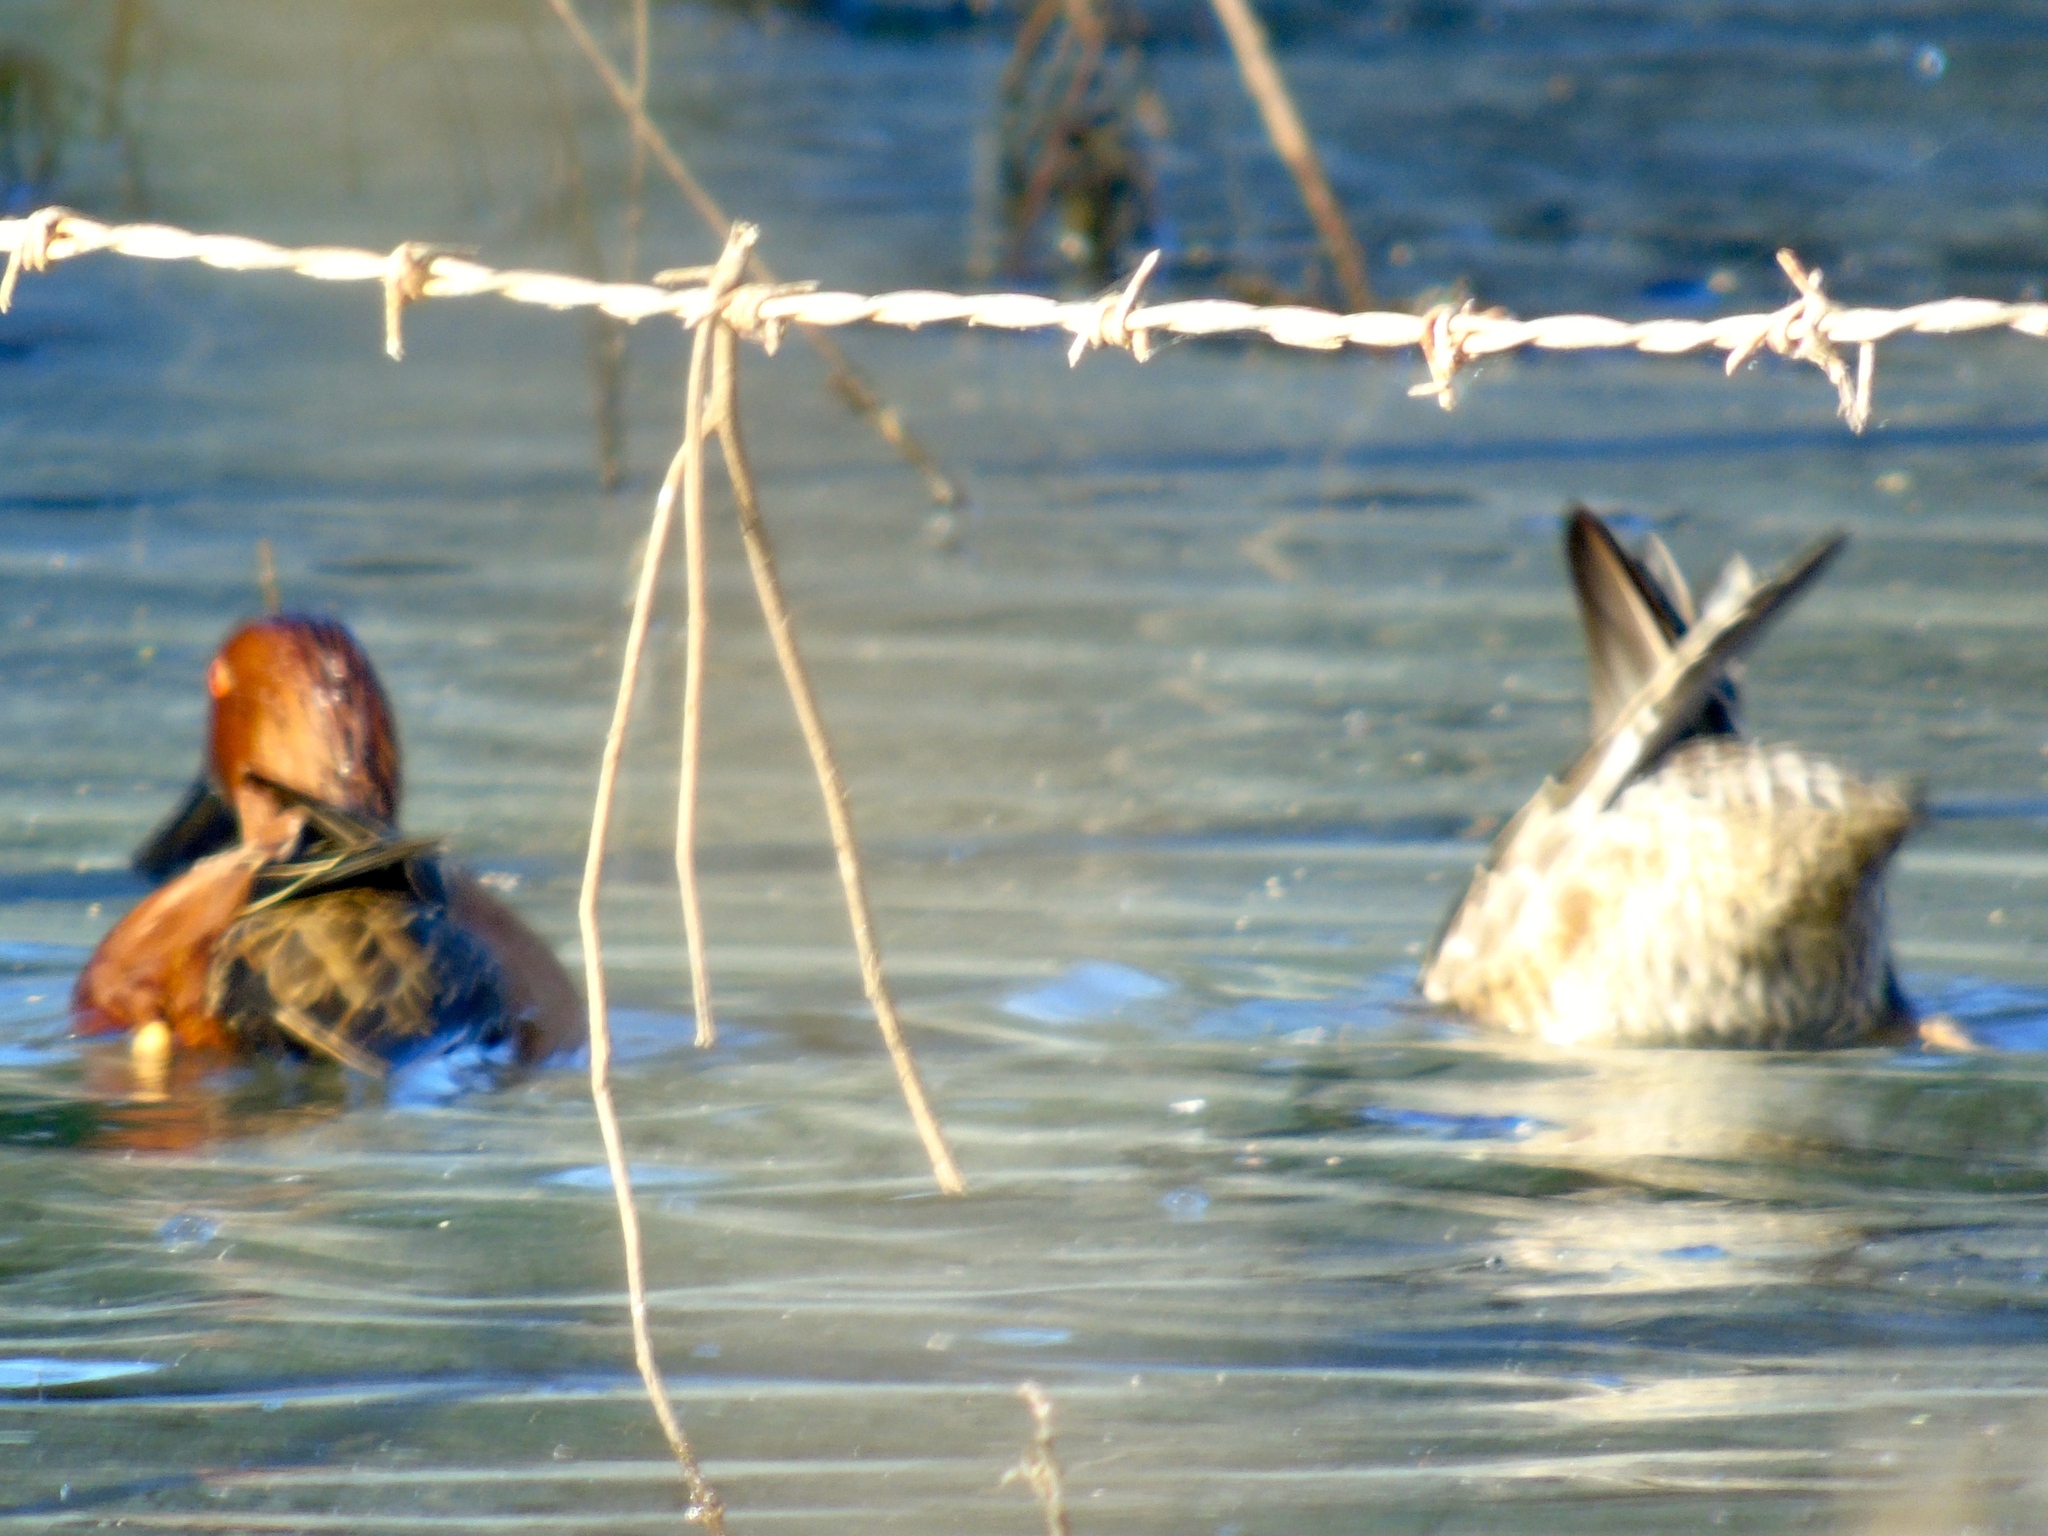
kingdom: Animalia
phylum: Chordata
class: Aves
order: Anseriformes
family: Anatidae
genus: Spatula
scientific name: Spatula cyanoptera
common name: Cinnamon teal
